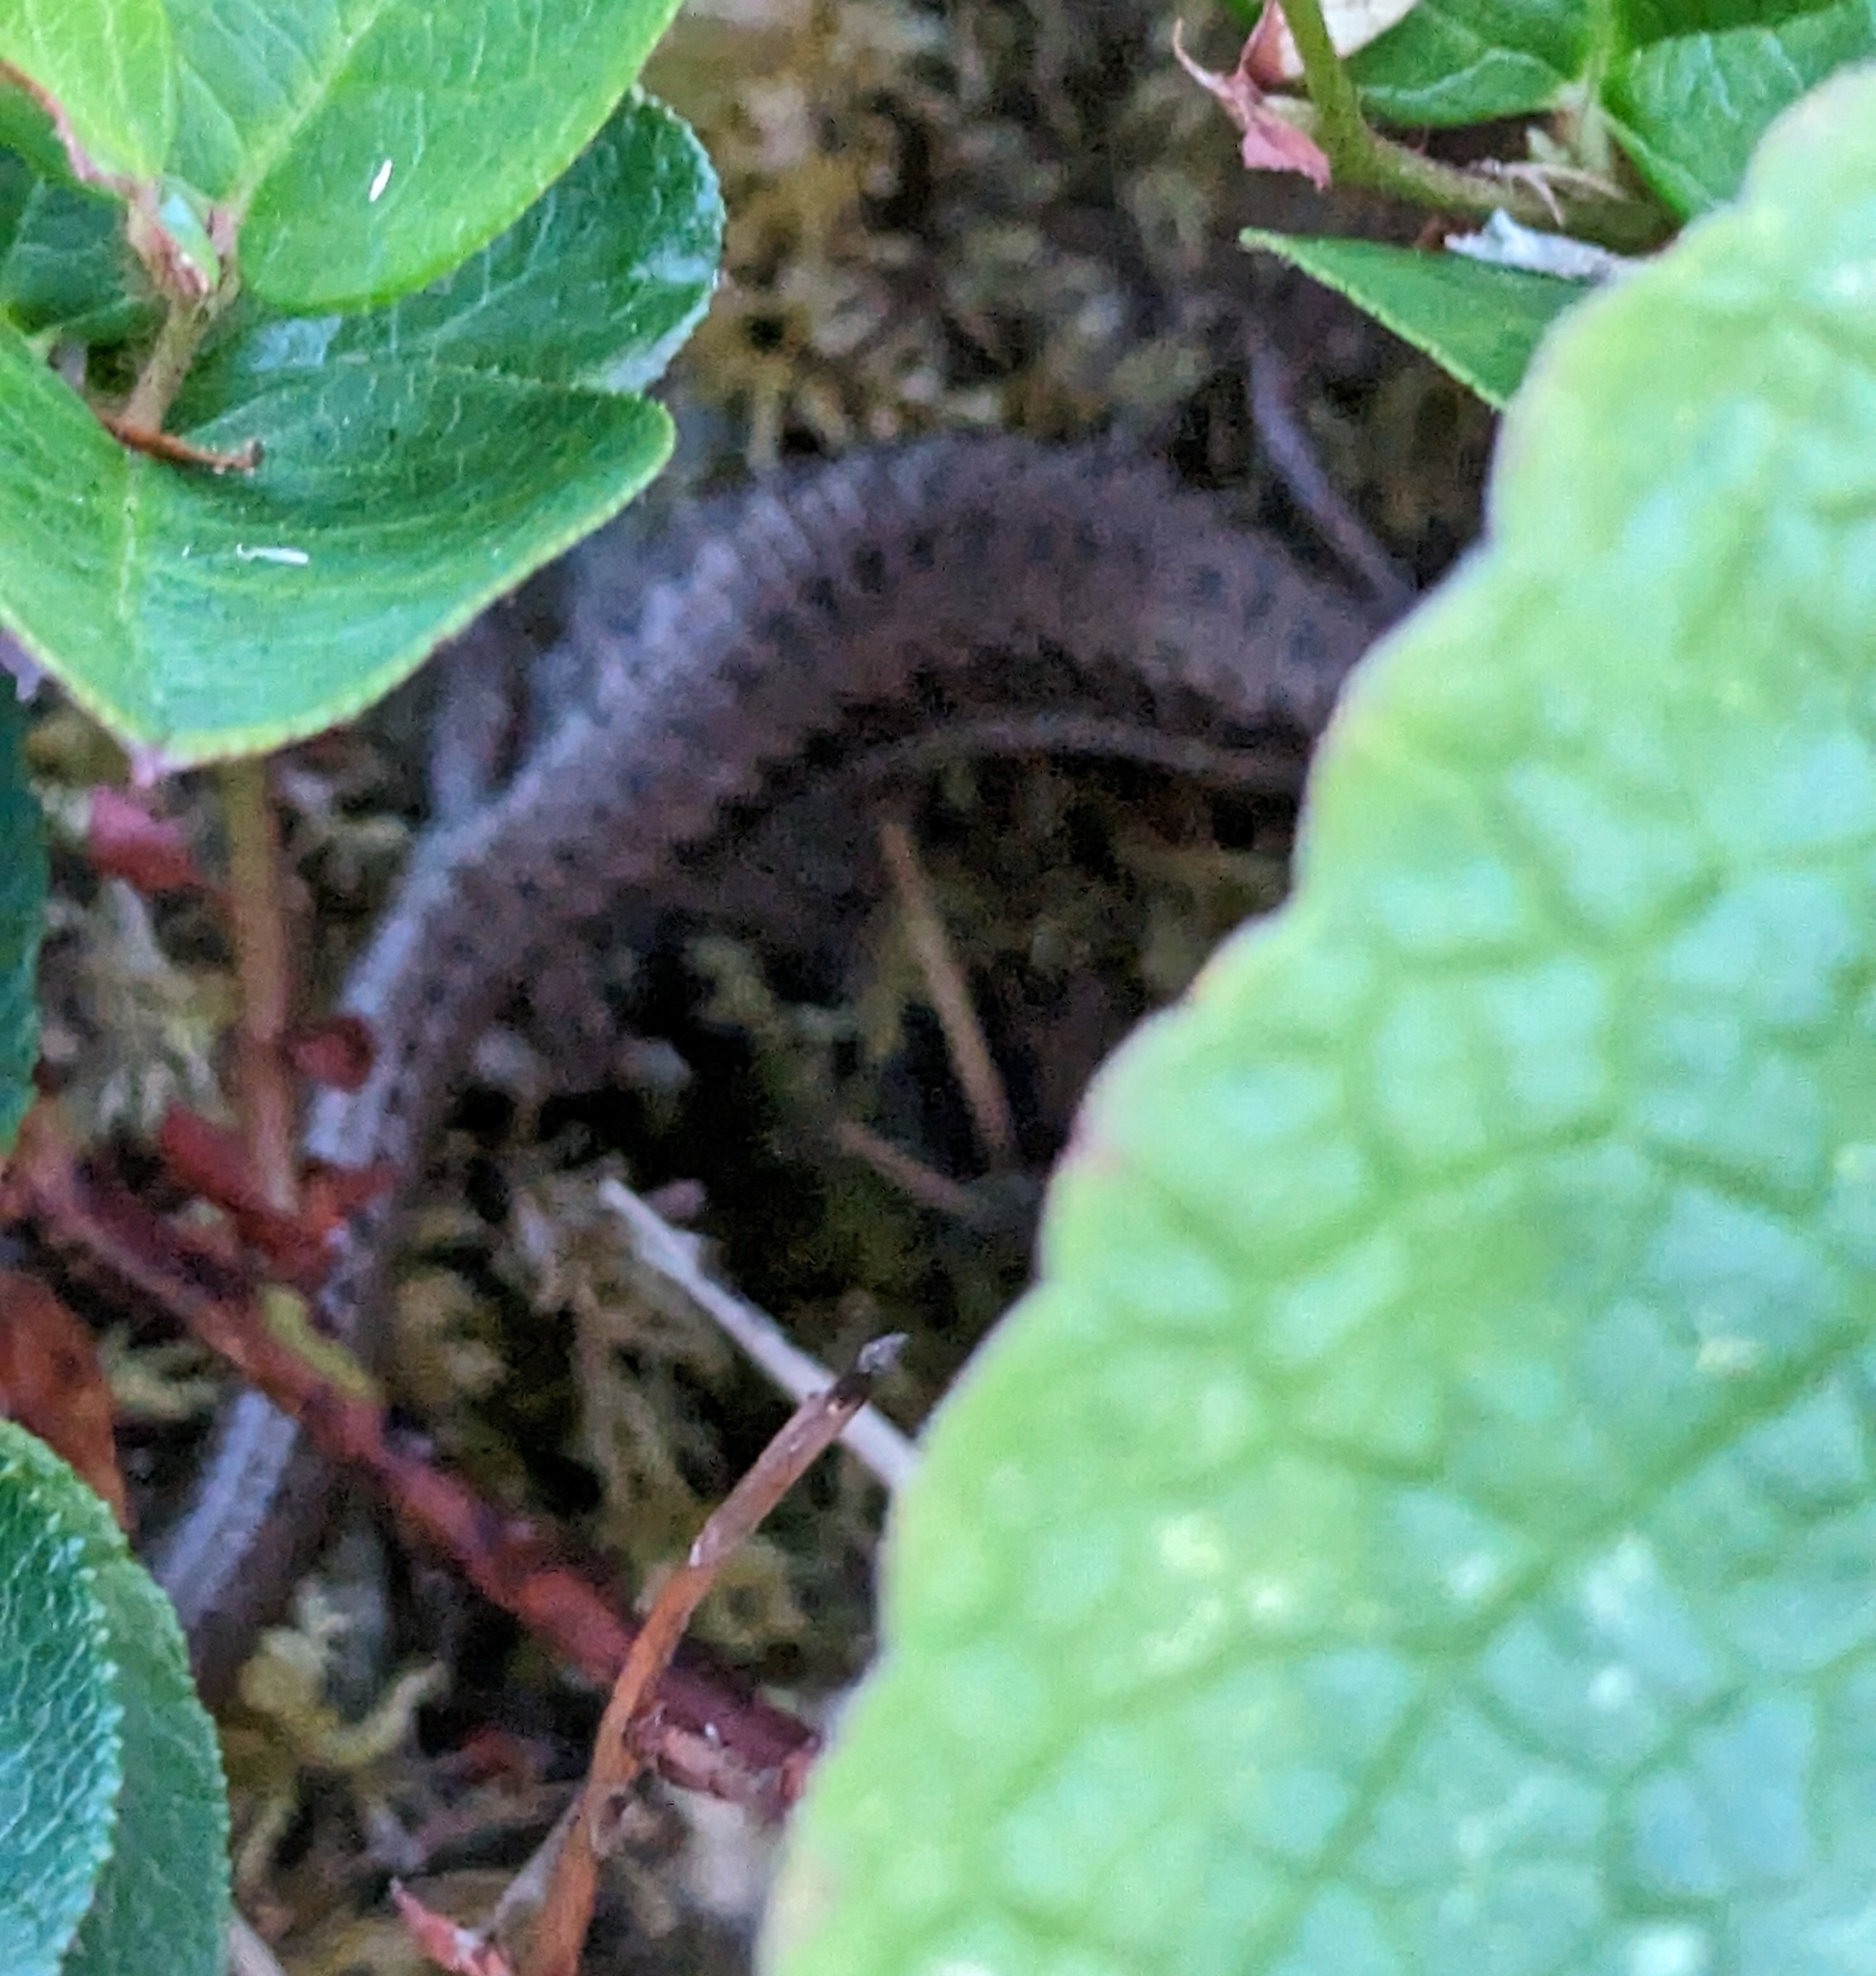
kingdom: Animalia
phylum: Chordata
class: Squamata
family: Anguidae
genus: Elgaria
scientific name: Elgaria coerulea
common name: Northern alligator lizard
